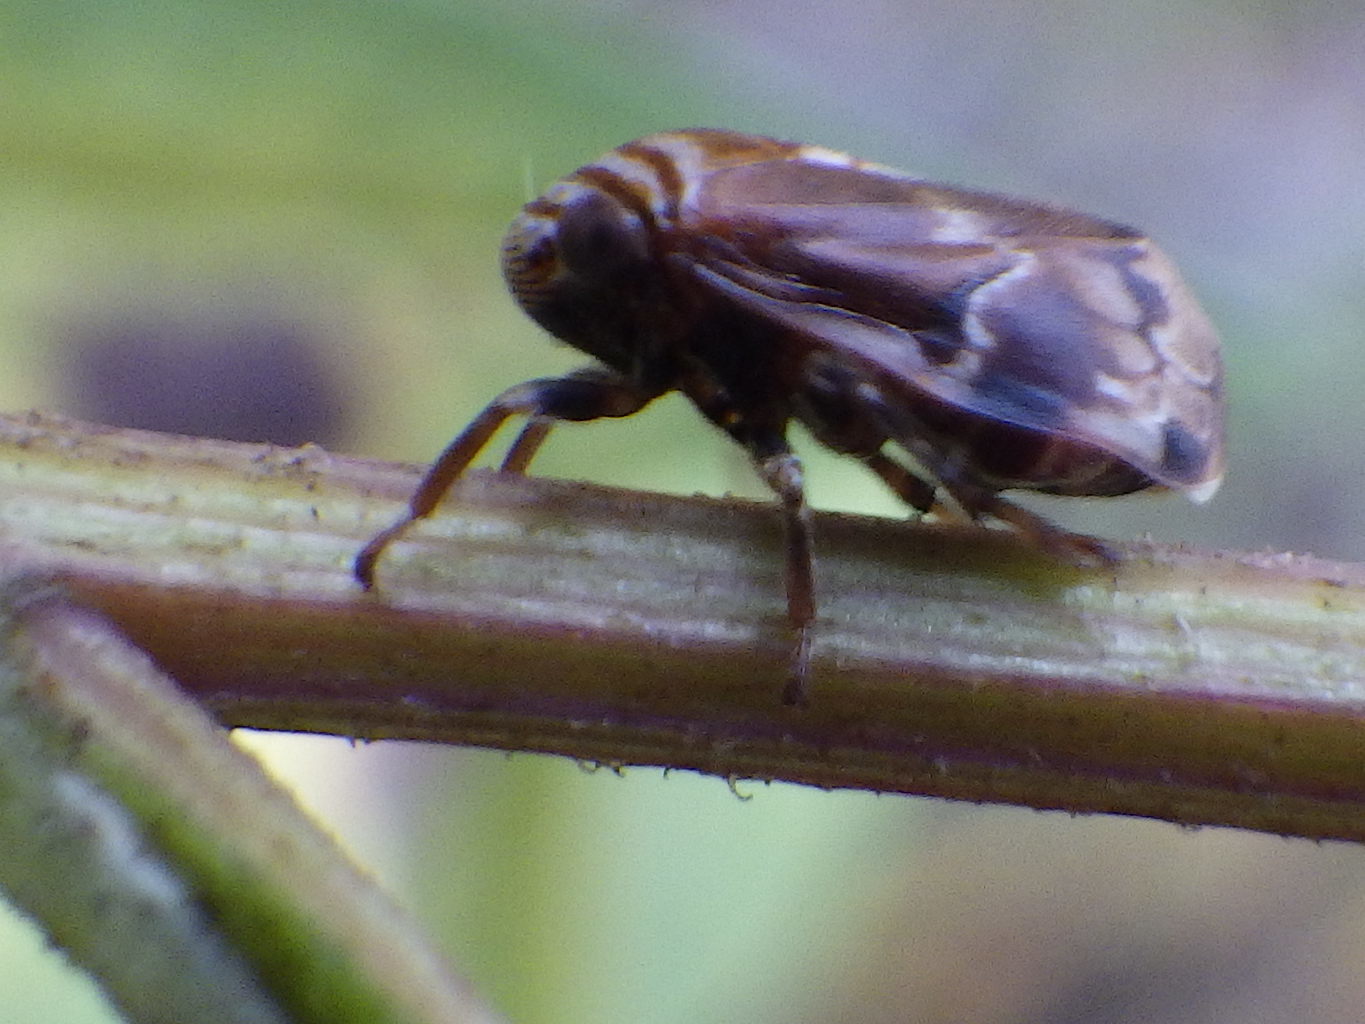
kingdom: Animalia
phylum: Arthropoda
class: Insecta
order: Hemiptera
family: Clastopteridae
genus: Clastoptera
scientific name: Clastoptera obtusa
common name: Alder spittlebug
